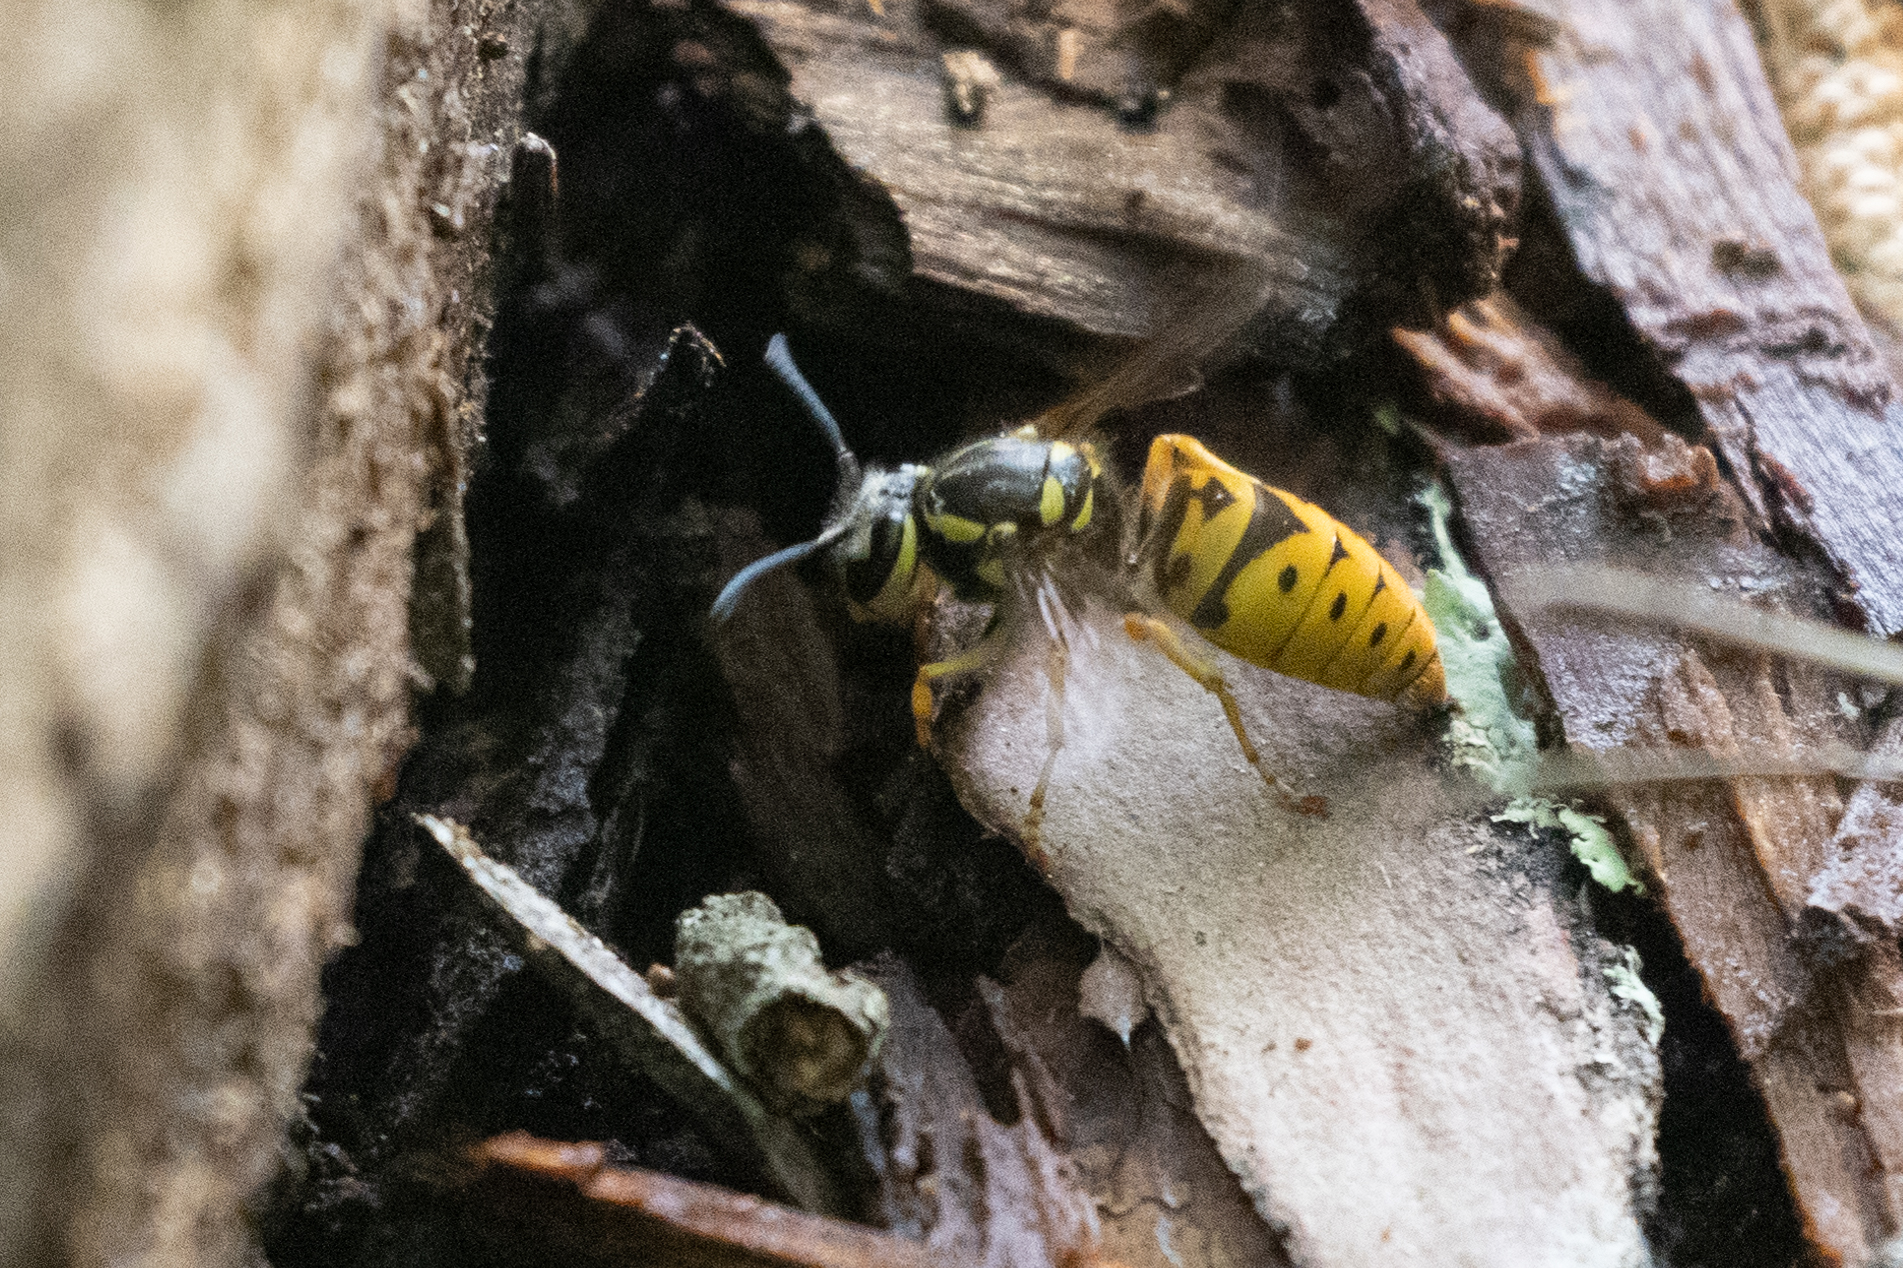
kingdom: Animalia
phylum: Arthropoda
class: Insecta
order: Hymenoptera
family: Vespidae
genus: Vespula
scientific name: Vespula maculifrons
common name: Eastern yellowjacket
